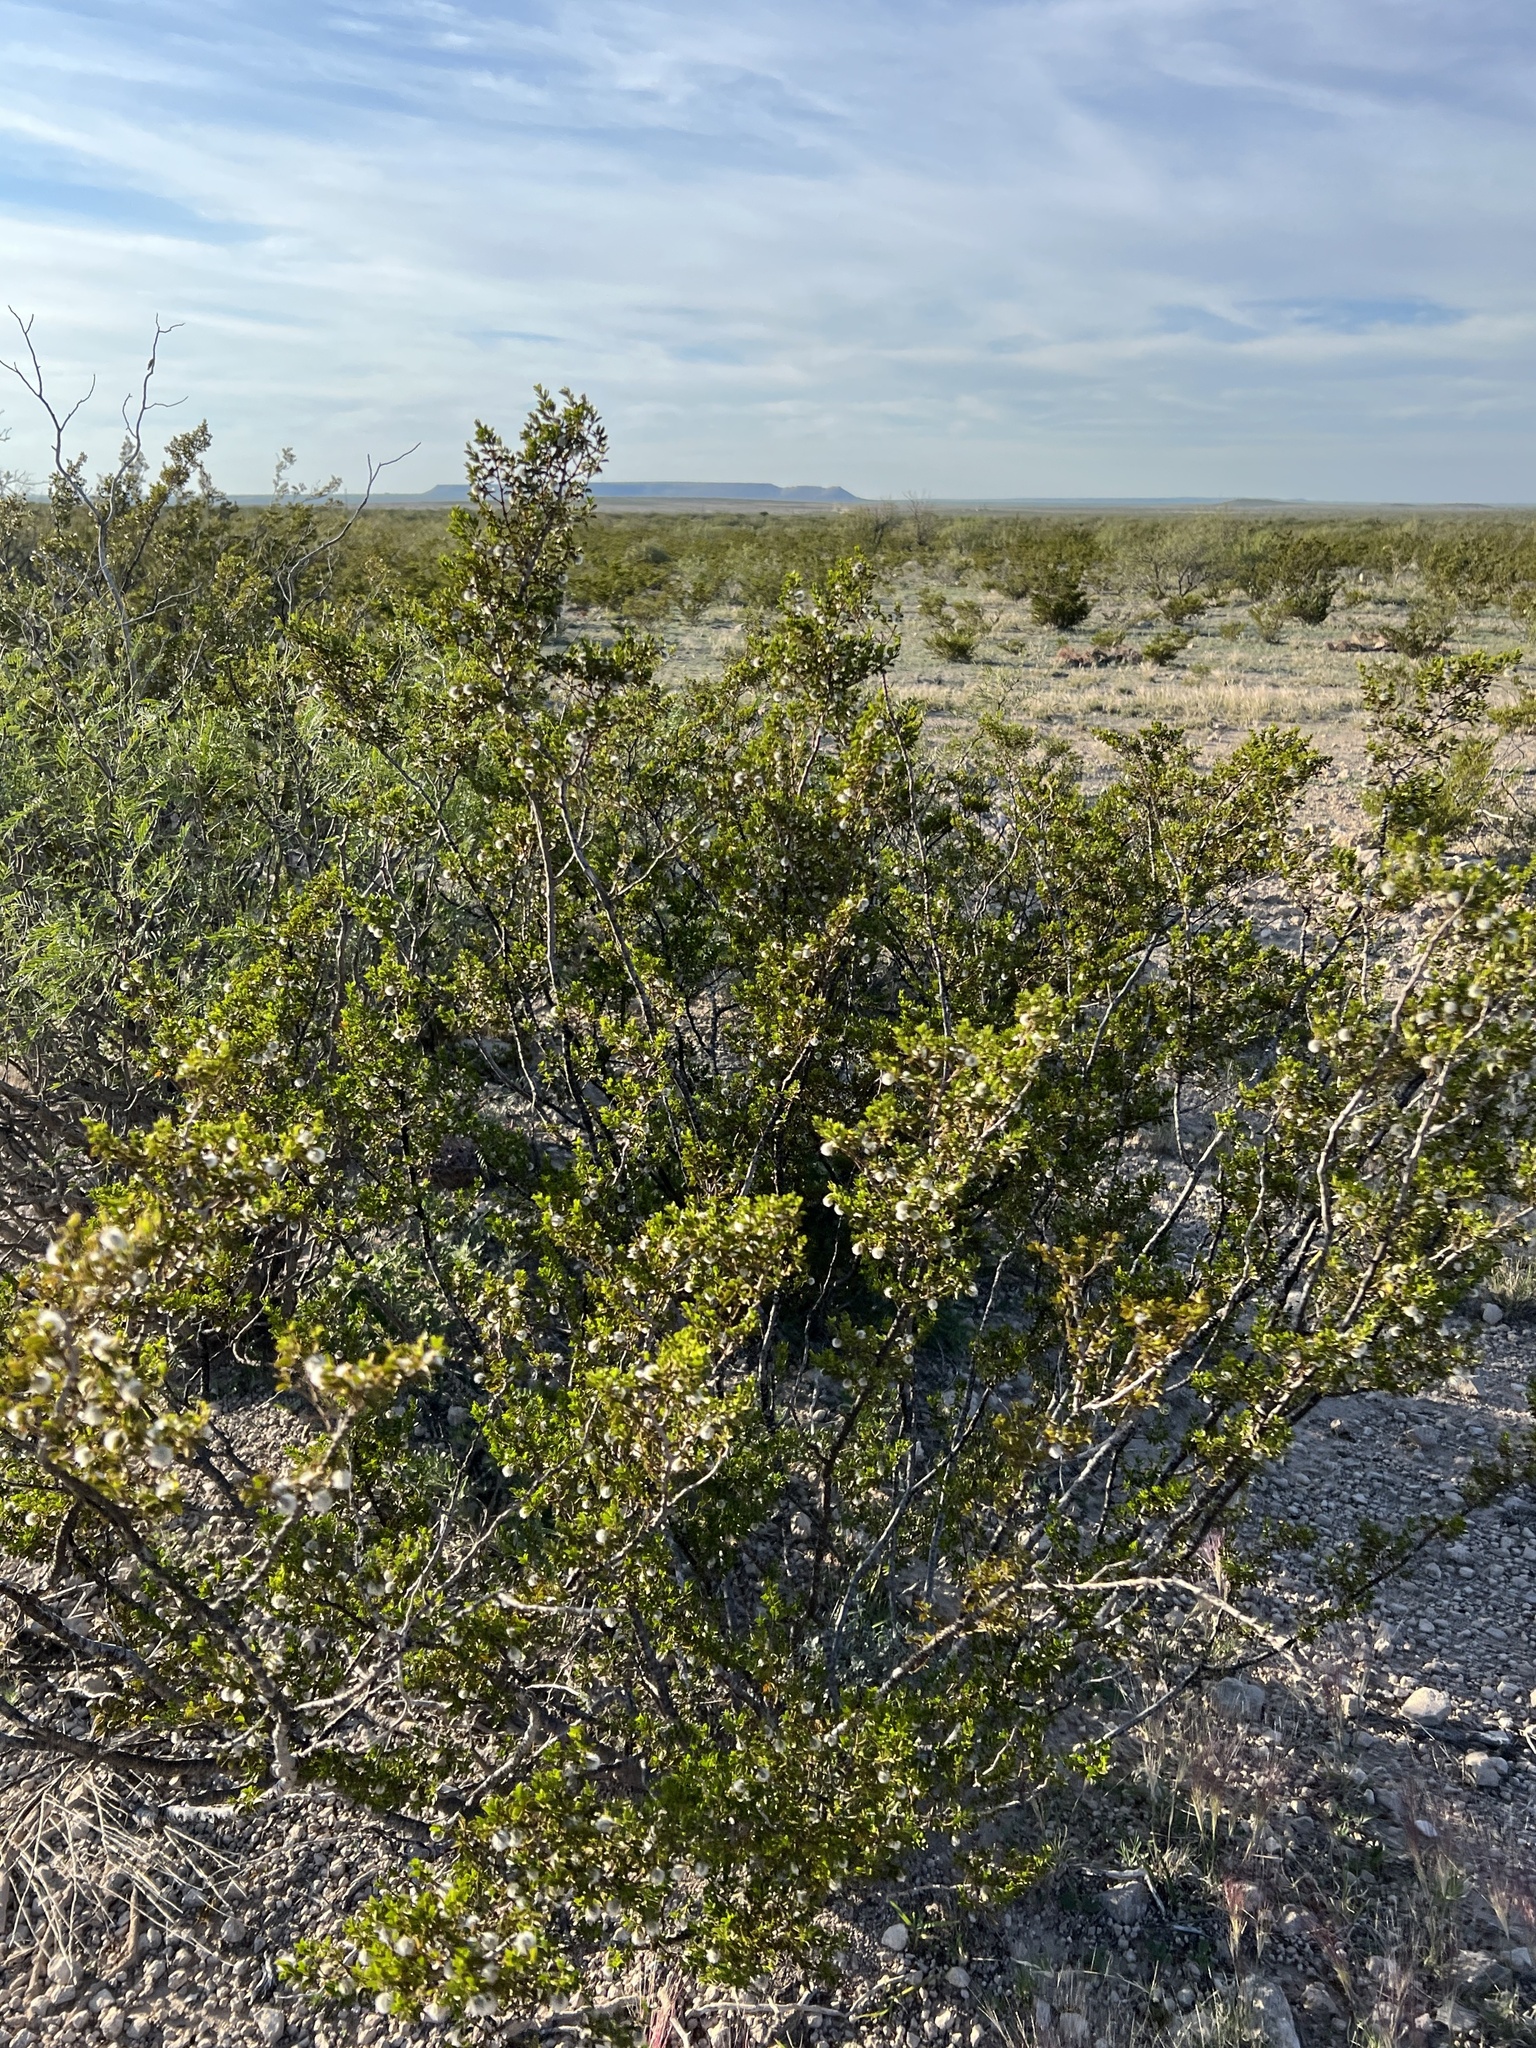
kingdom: Plantae
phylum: Tracheophyta
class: Magnoliopsida
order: Zygophyllales
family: Zygophyllaceae
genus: Larrea
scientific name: Larrea tridentata
